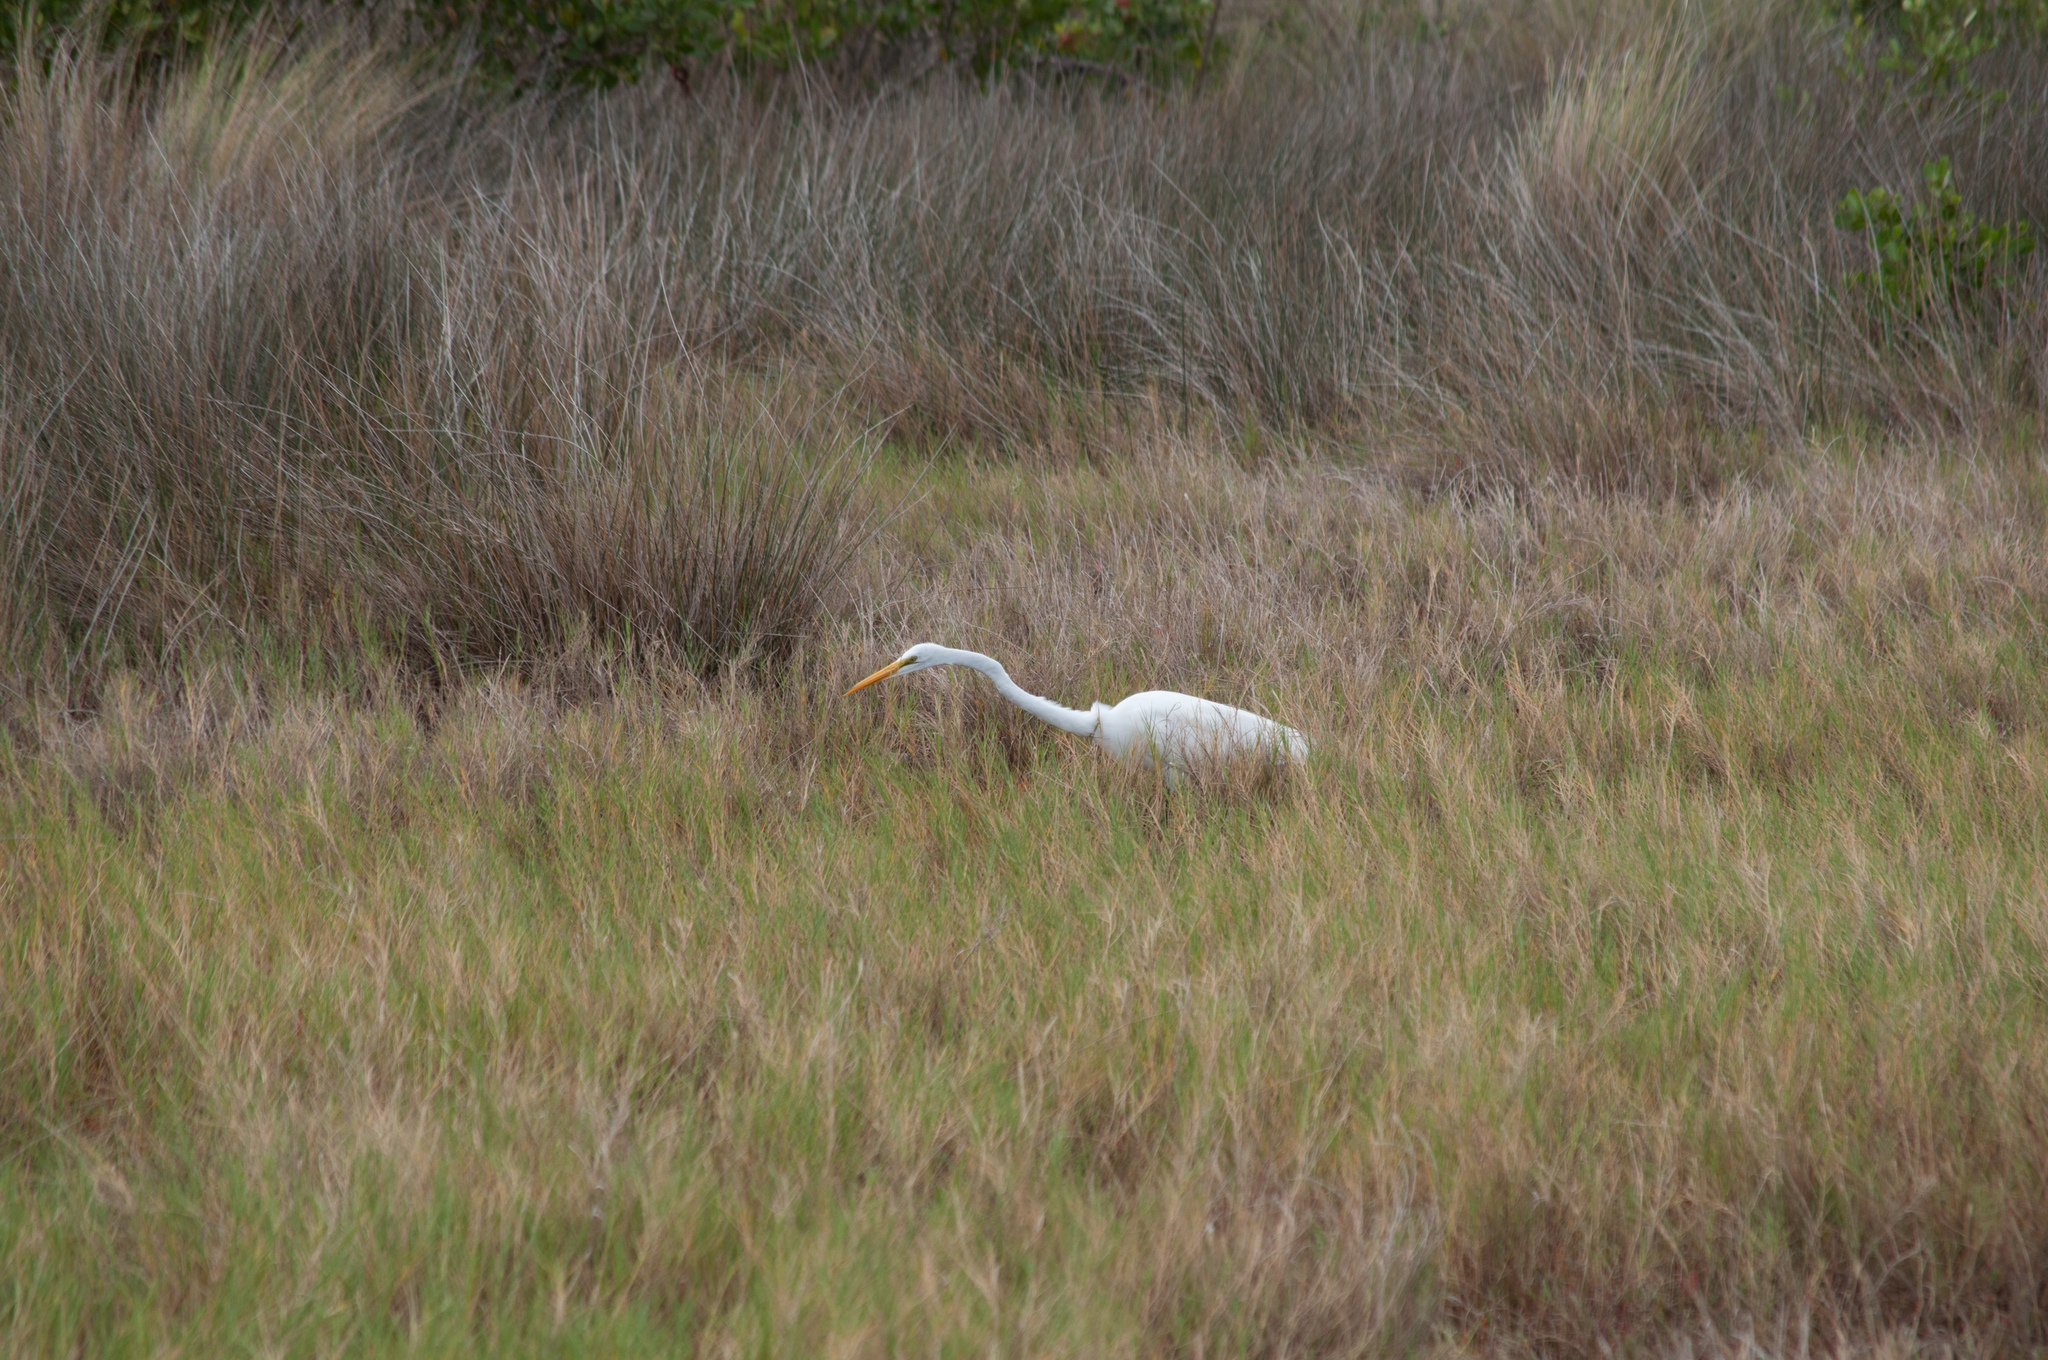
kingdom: Animalia
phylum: Chordata
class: Aves
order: Pelecaniformes
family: Ardeidae
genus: Ardea
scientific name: Ardea alba
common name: Great egret
